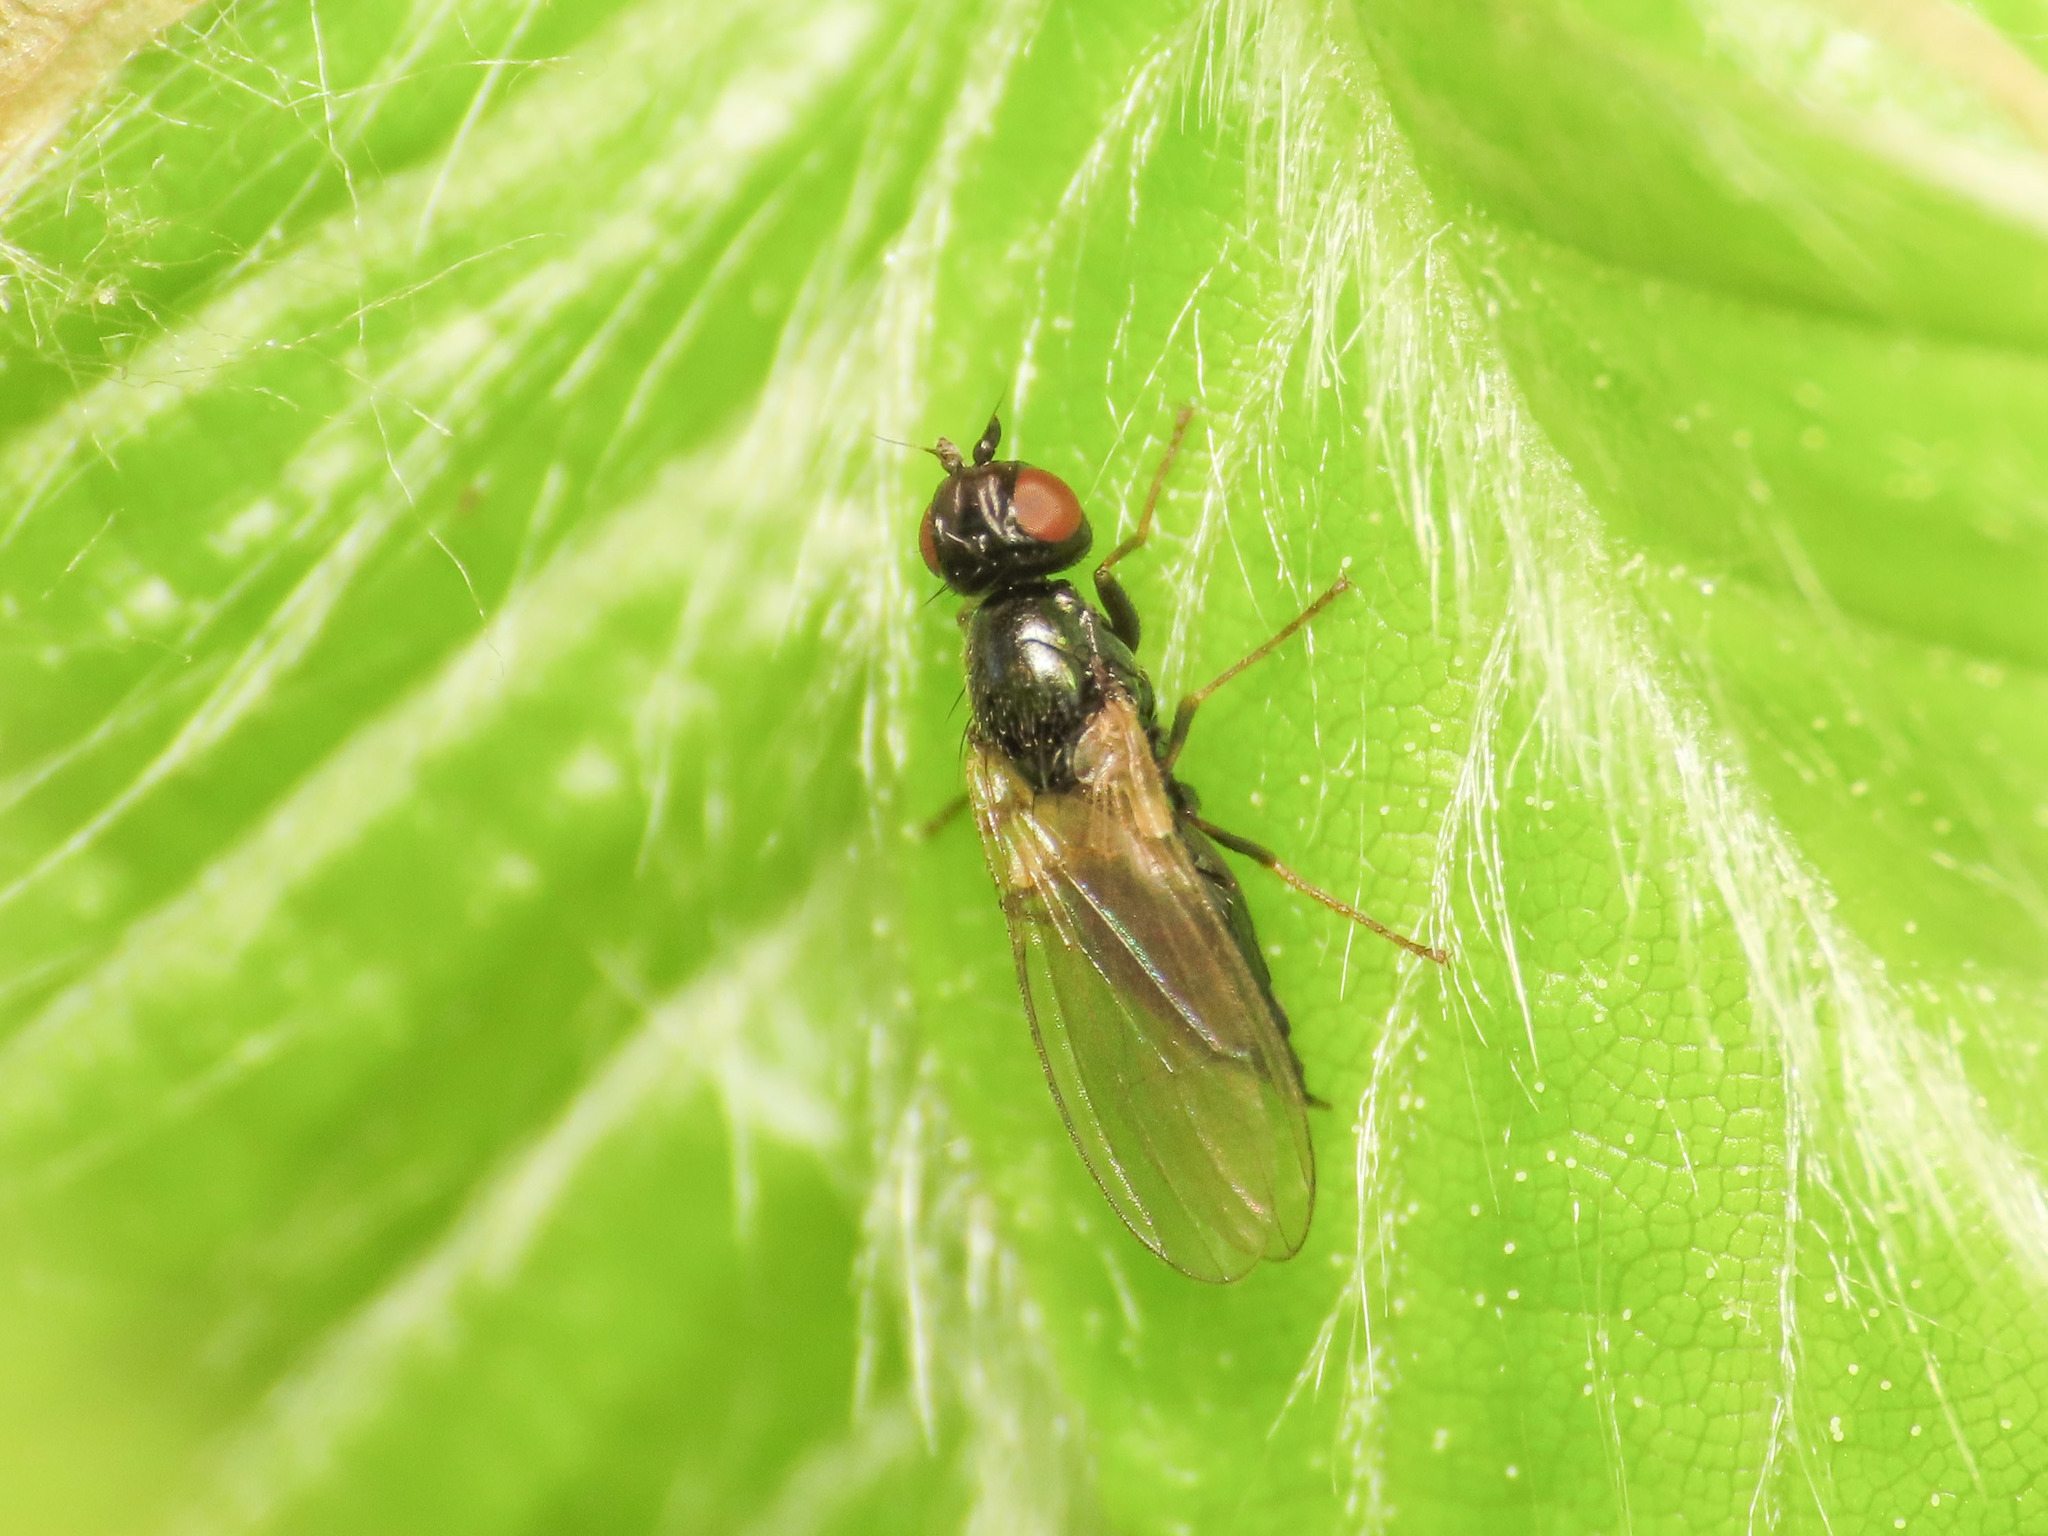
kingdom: Animalia
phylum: Arthropoda
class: Insecta
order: Diptera
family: Psilidae
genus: Chamaepsila
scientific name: Chamaepsila nigra
